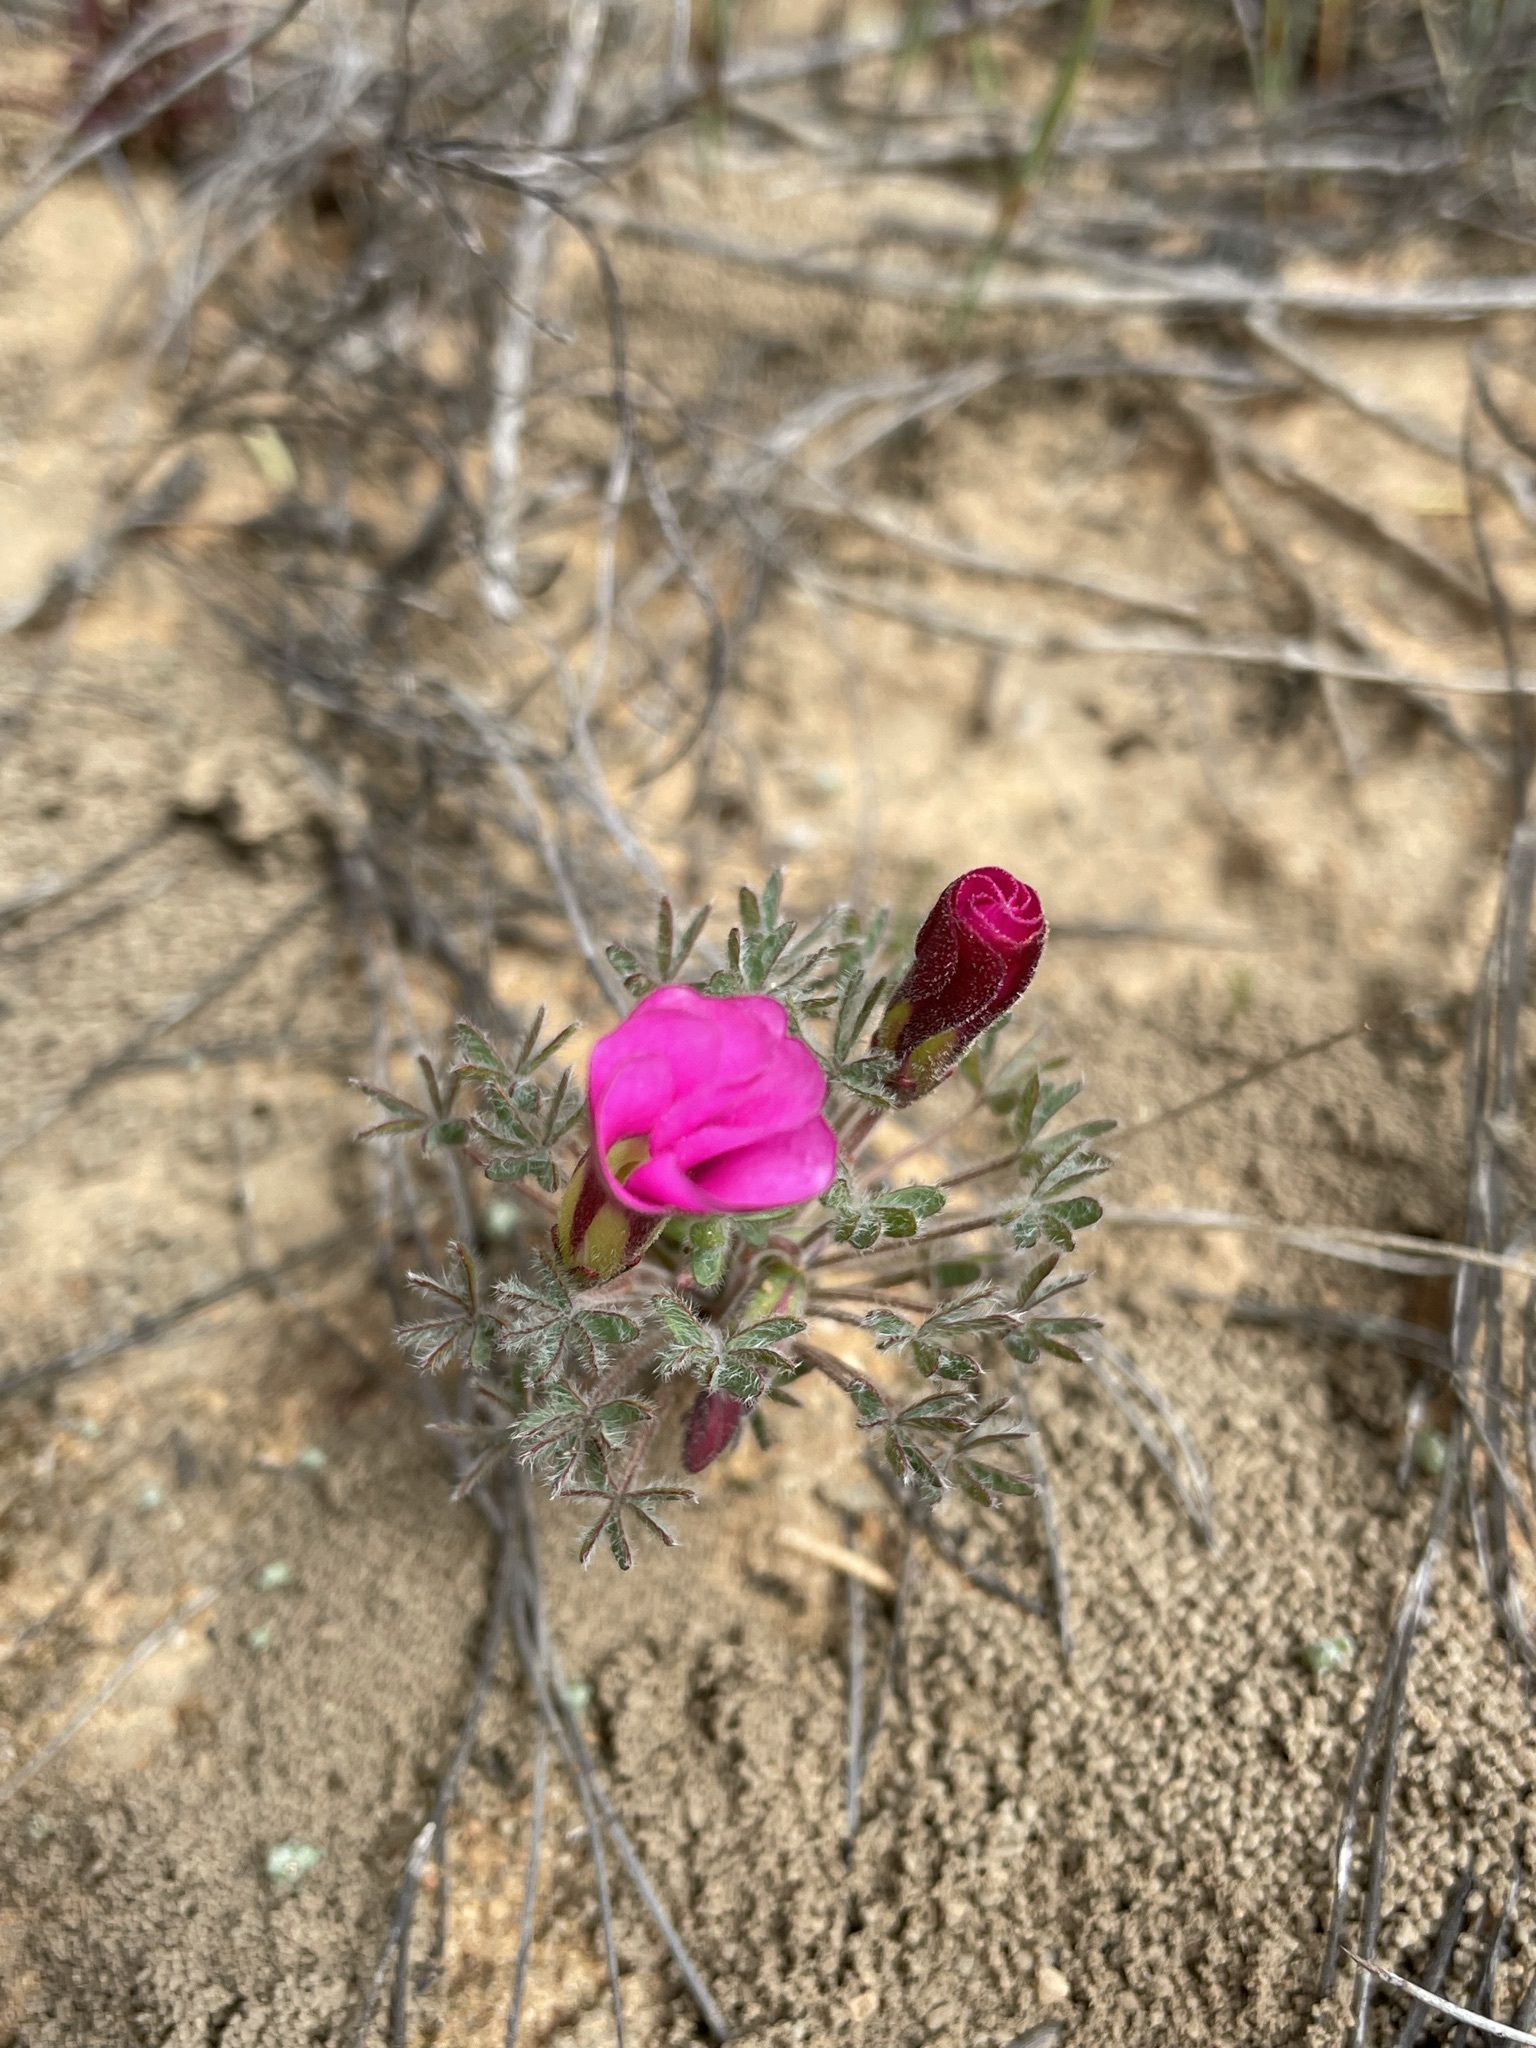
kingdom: Plantae
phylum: Tracheophyta
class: Magnoliopsida
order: Oxalidales
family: Oxalidaceae
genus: Oxalis
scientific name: Oxalis heterophylla
